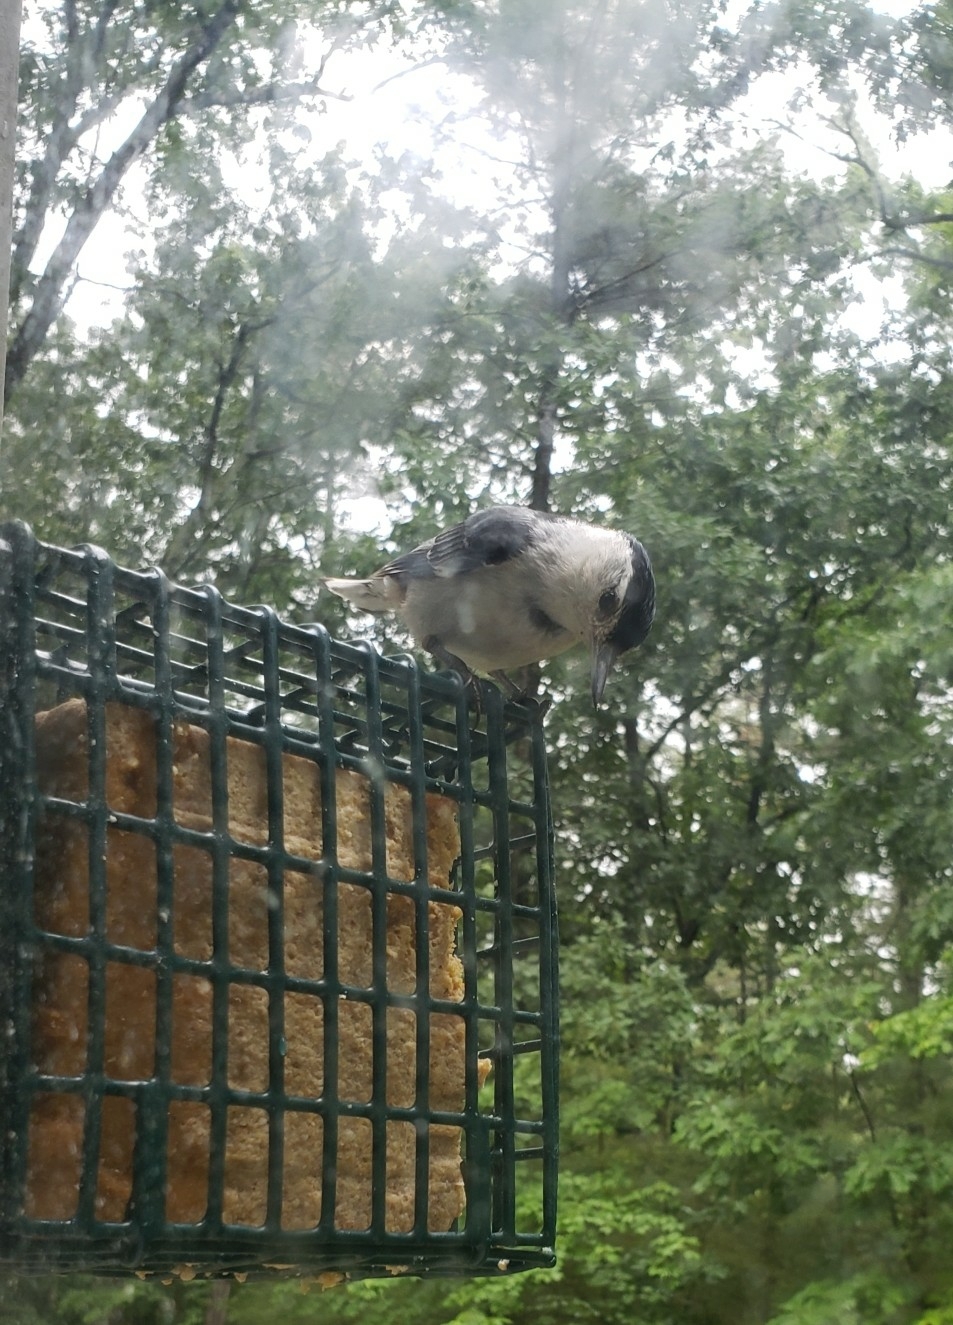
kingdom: Animalia
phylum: Chordata
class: Aves
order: Passeriformes
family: Sittidae
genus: Sitta
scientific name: Sitta carolinensis
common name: White-breasted nuthatch
